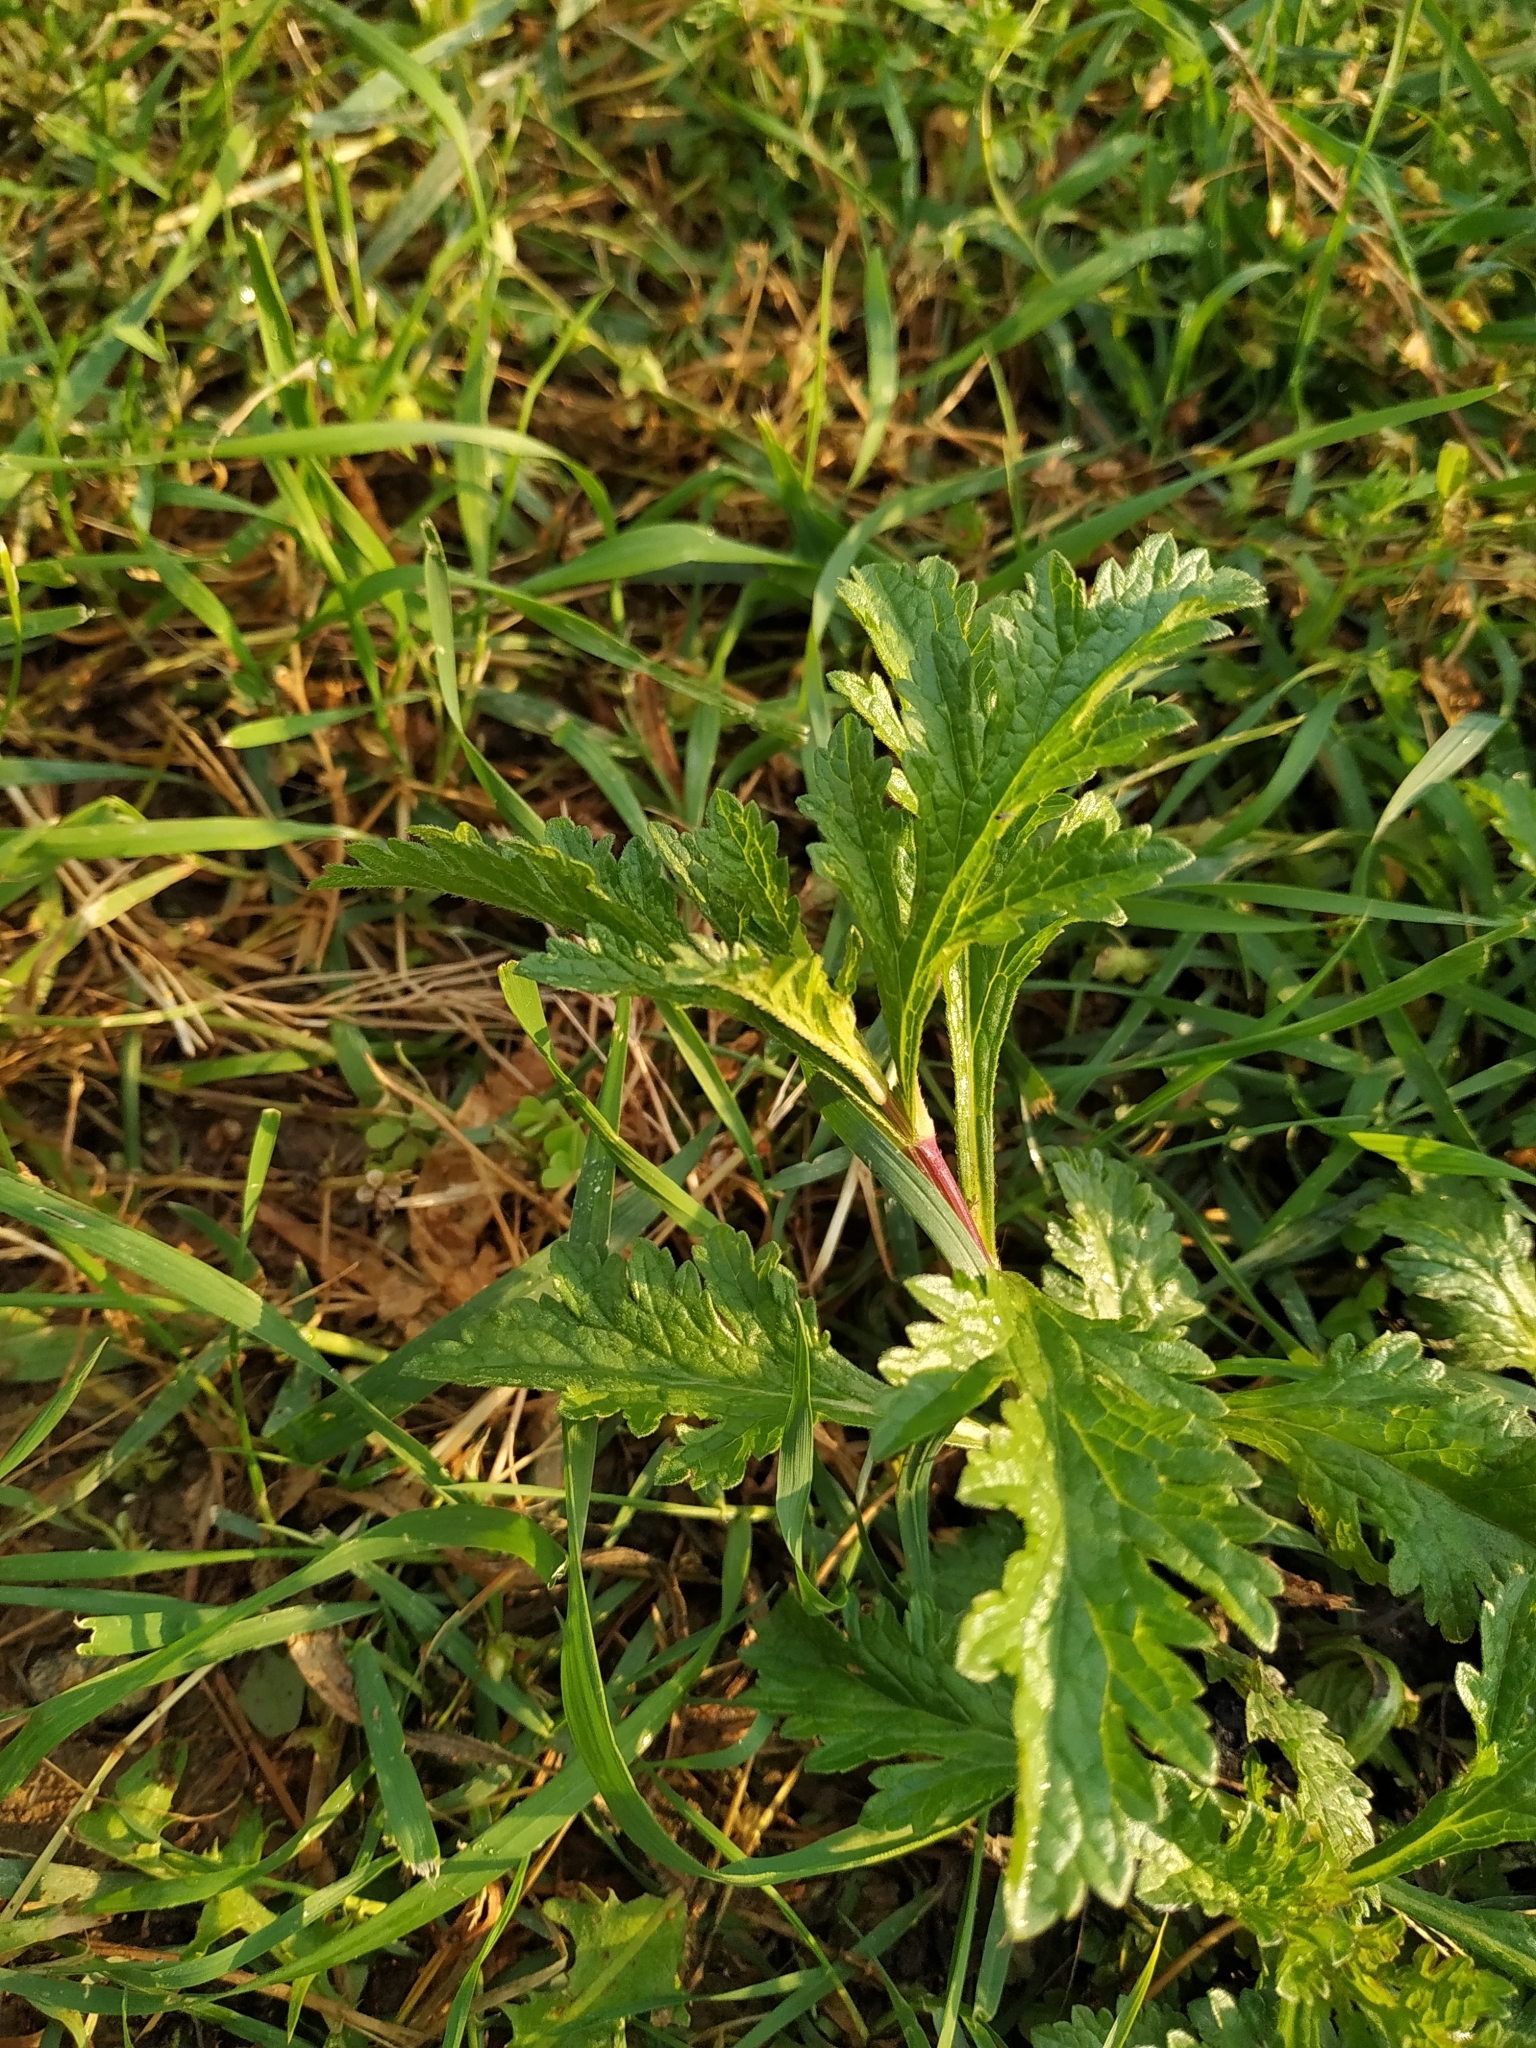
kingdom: Plantae
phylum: Tracheophyta
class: Magnoliopsida
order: Lamiales
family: Verbenaceae
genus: Verbena
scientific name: Verbena officinalis
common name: Vervain
